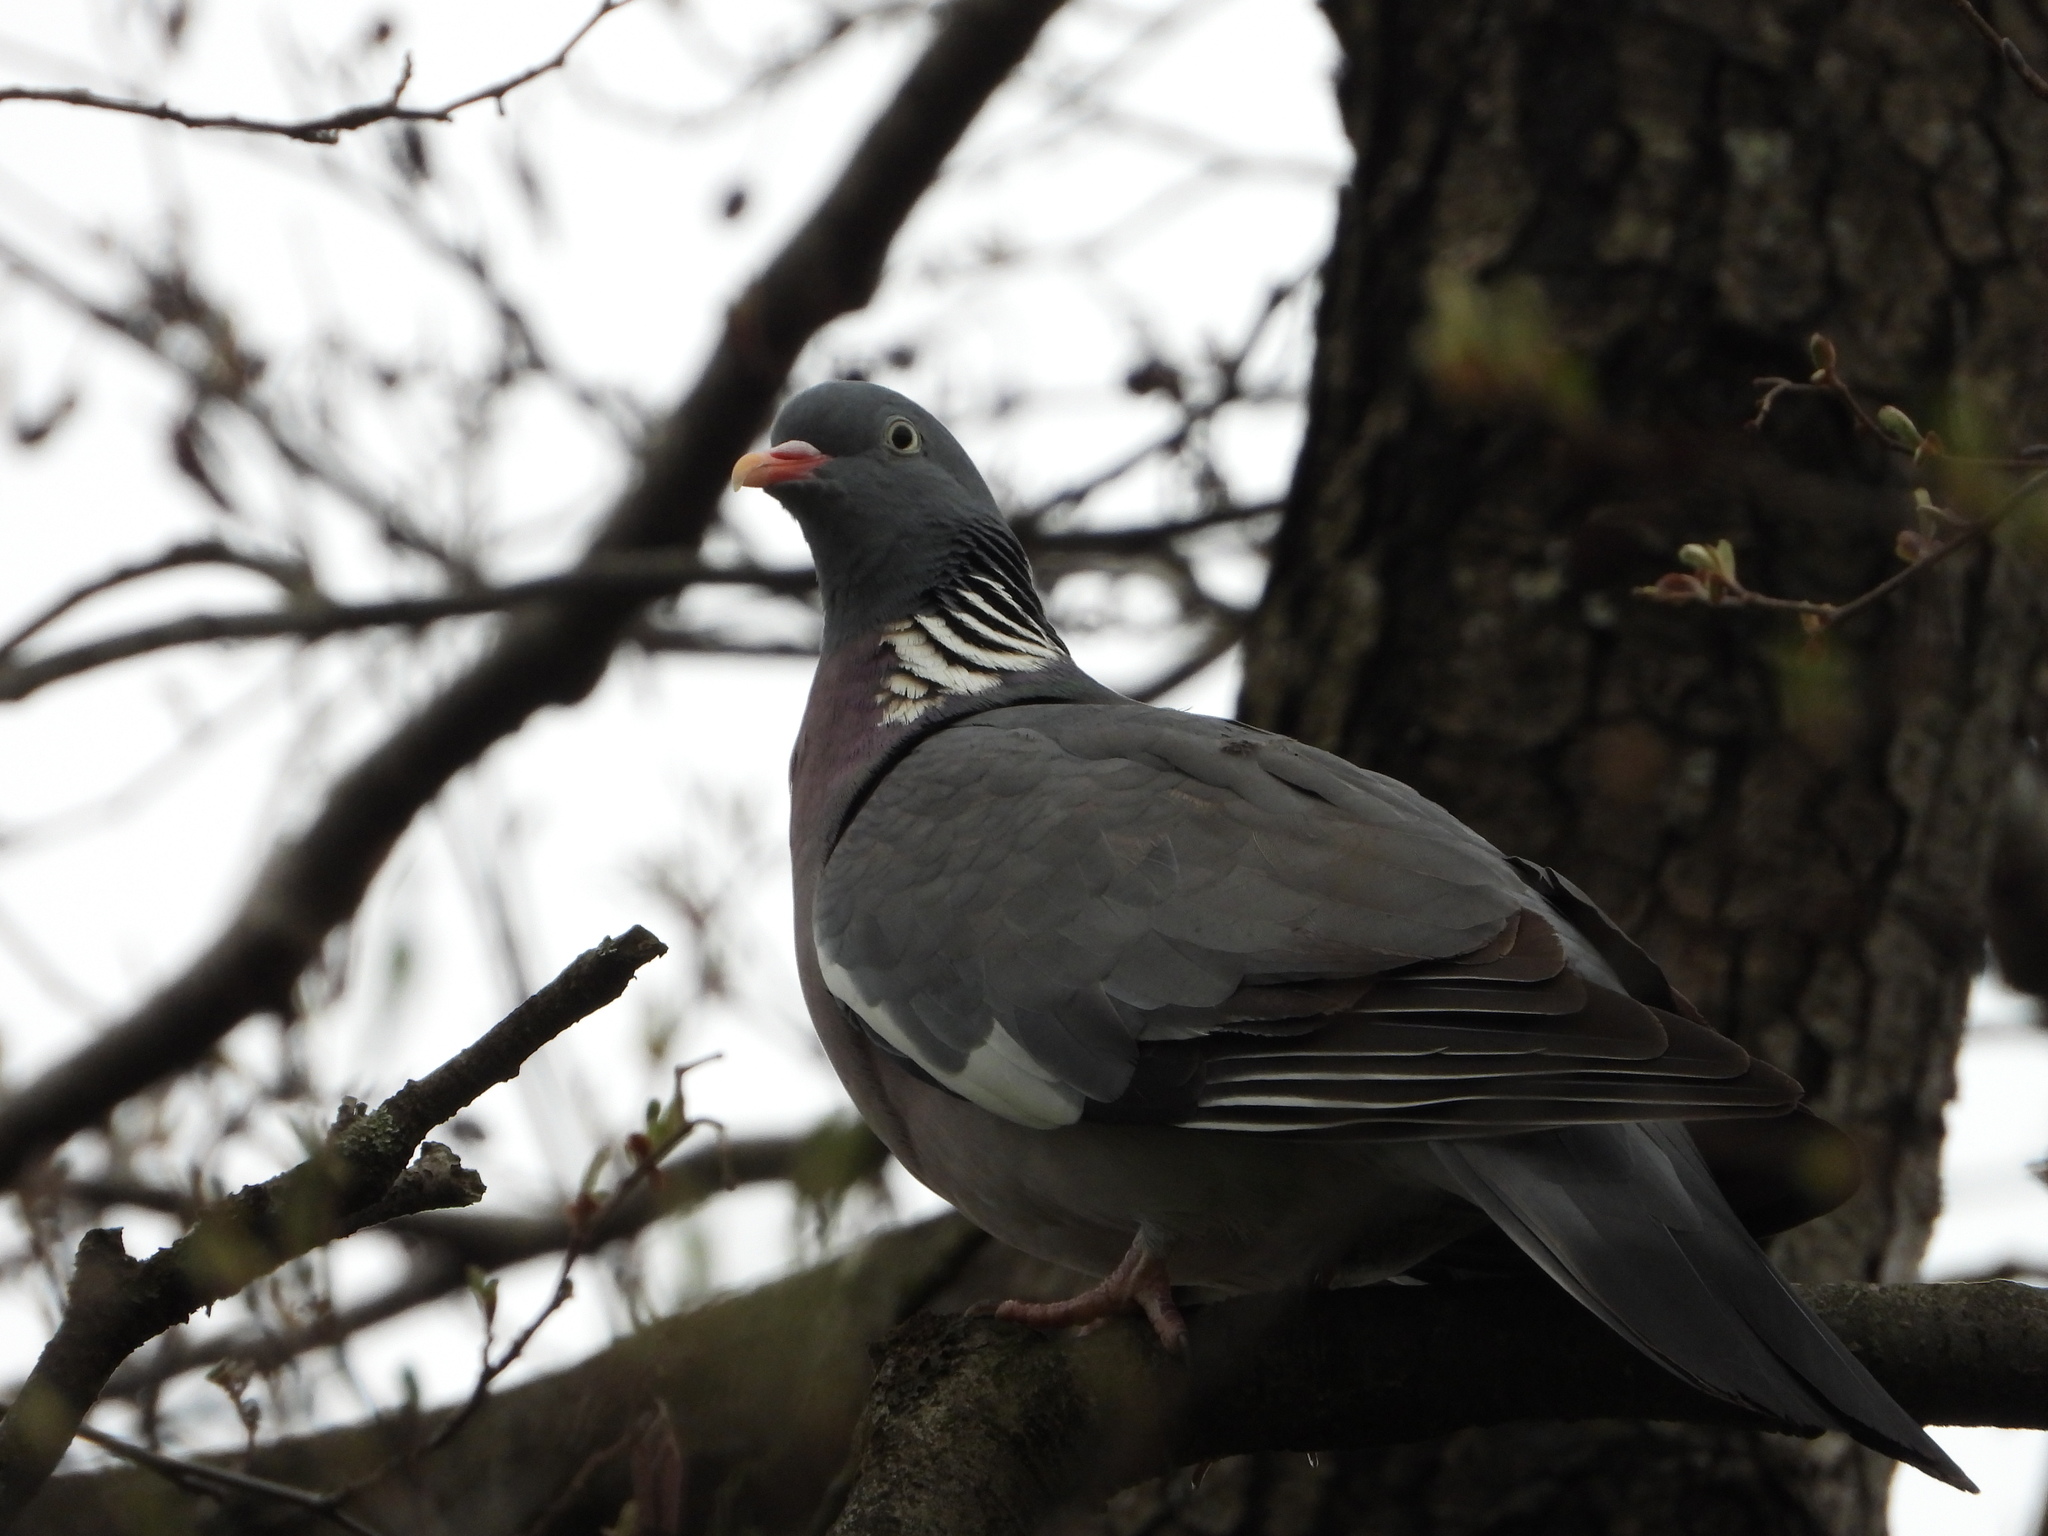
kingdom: Animalia
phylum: Chordata
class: Aves
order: Columbiformes
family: Columbidae
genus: Columba
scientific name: Columba palumbus
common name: Common wood pigeon
